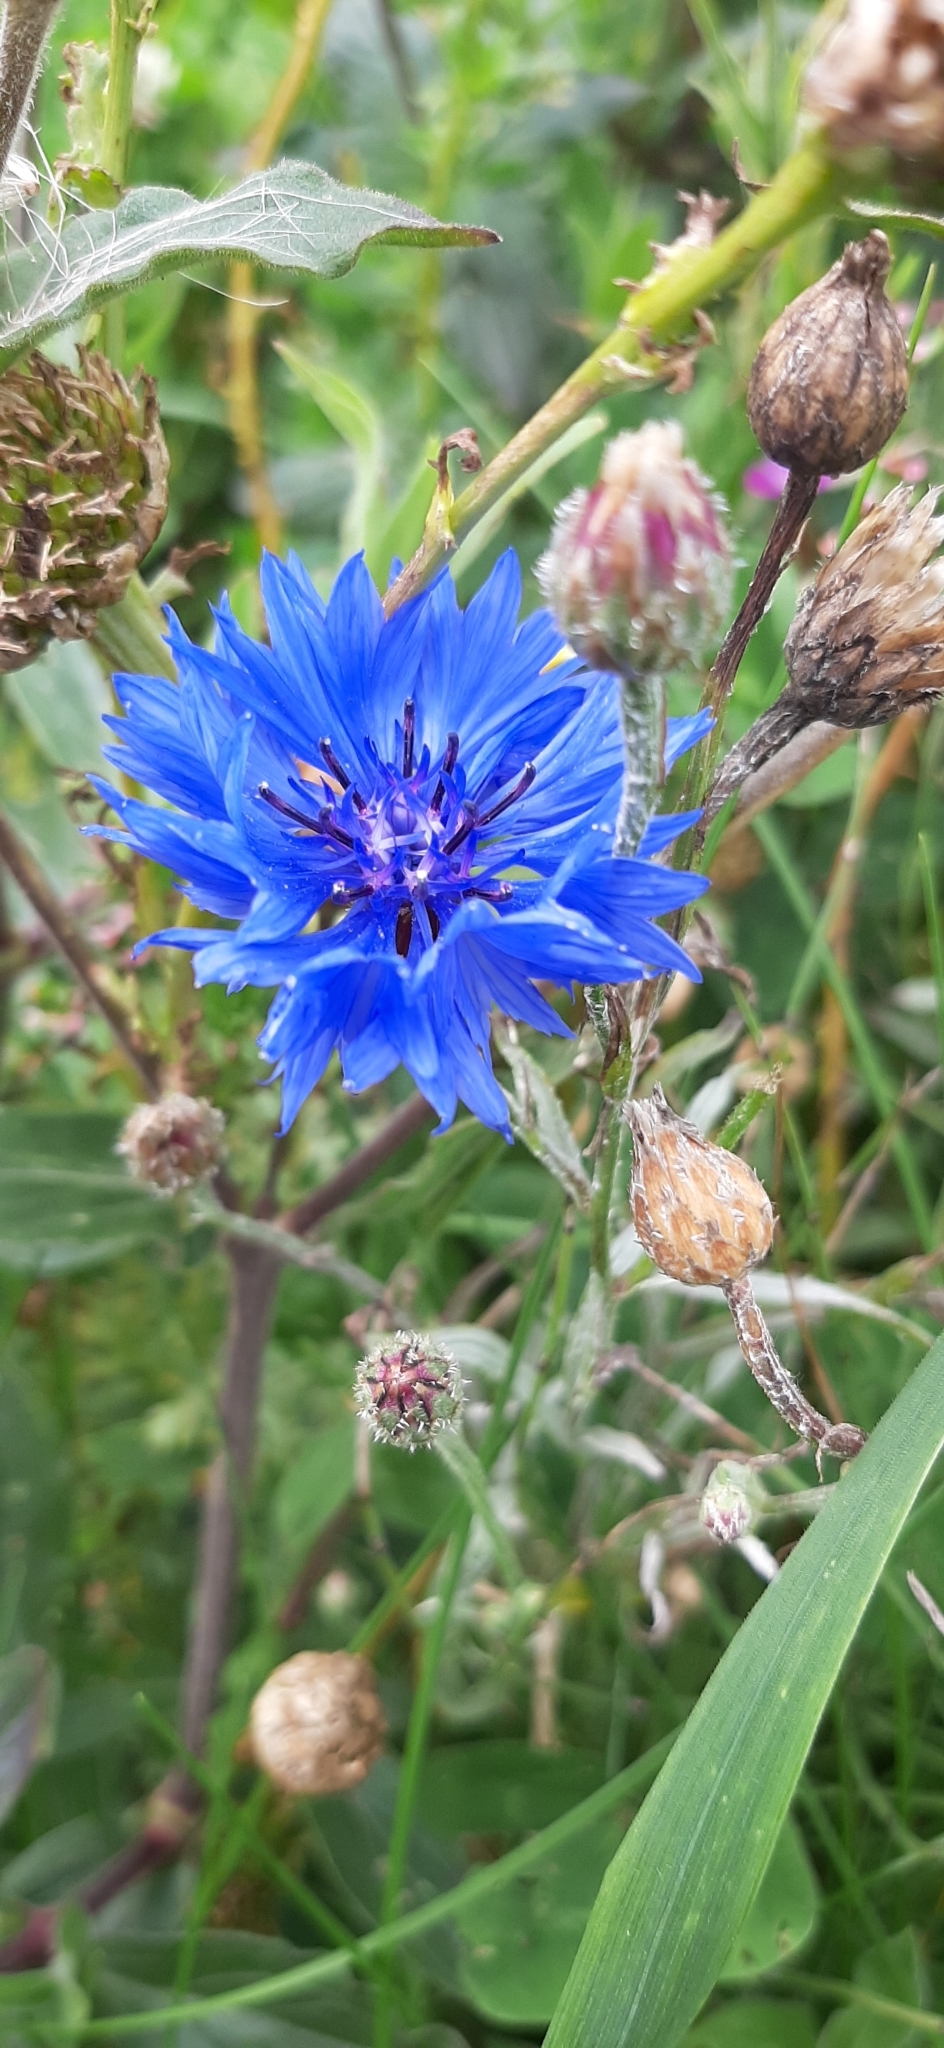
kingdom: Plantae
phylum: Tracheophyta
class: Magnoliopsida
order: Asterales
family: Asteraceae
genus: Centaurea
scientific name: Centaurea cyanus
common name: Cornflower
